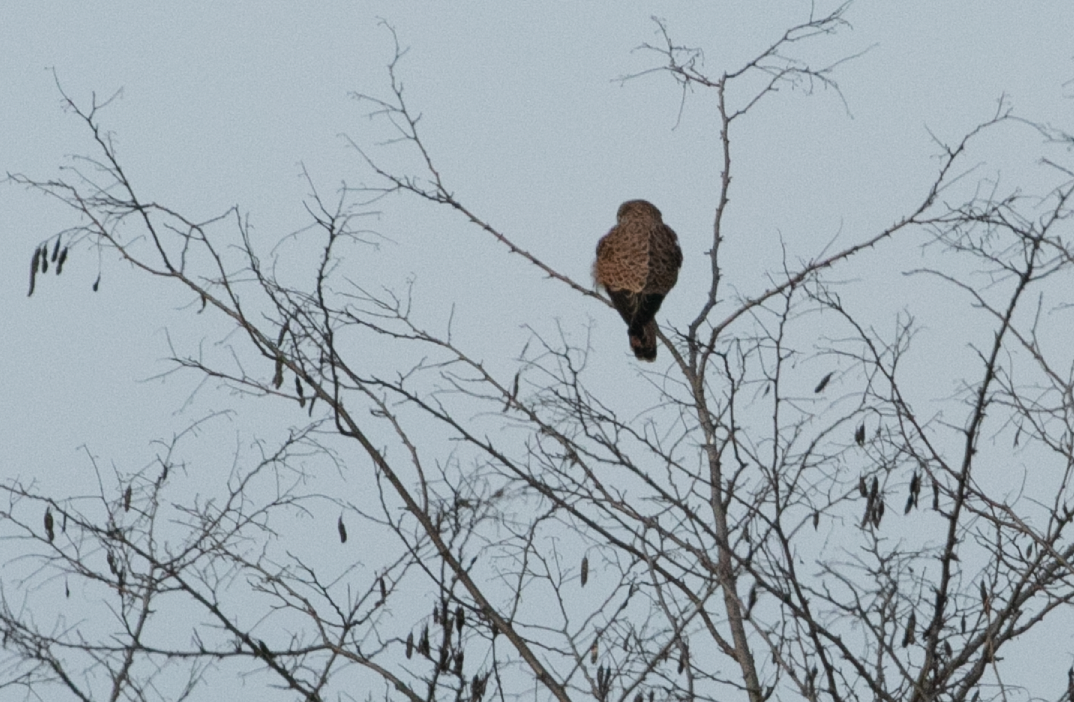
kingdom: Animalia
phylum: Chordata
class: Aves
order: Falconiformes
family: Falconidae
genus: Falco
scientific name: Falco tinnunculus
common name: Common kestrel
